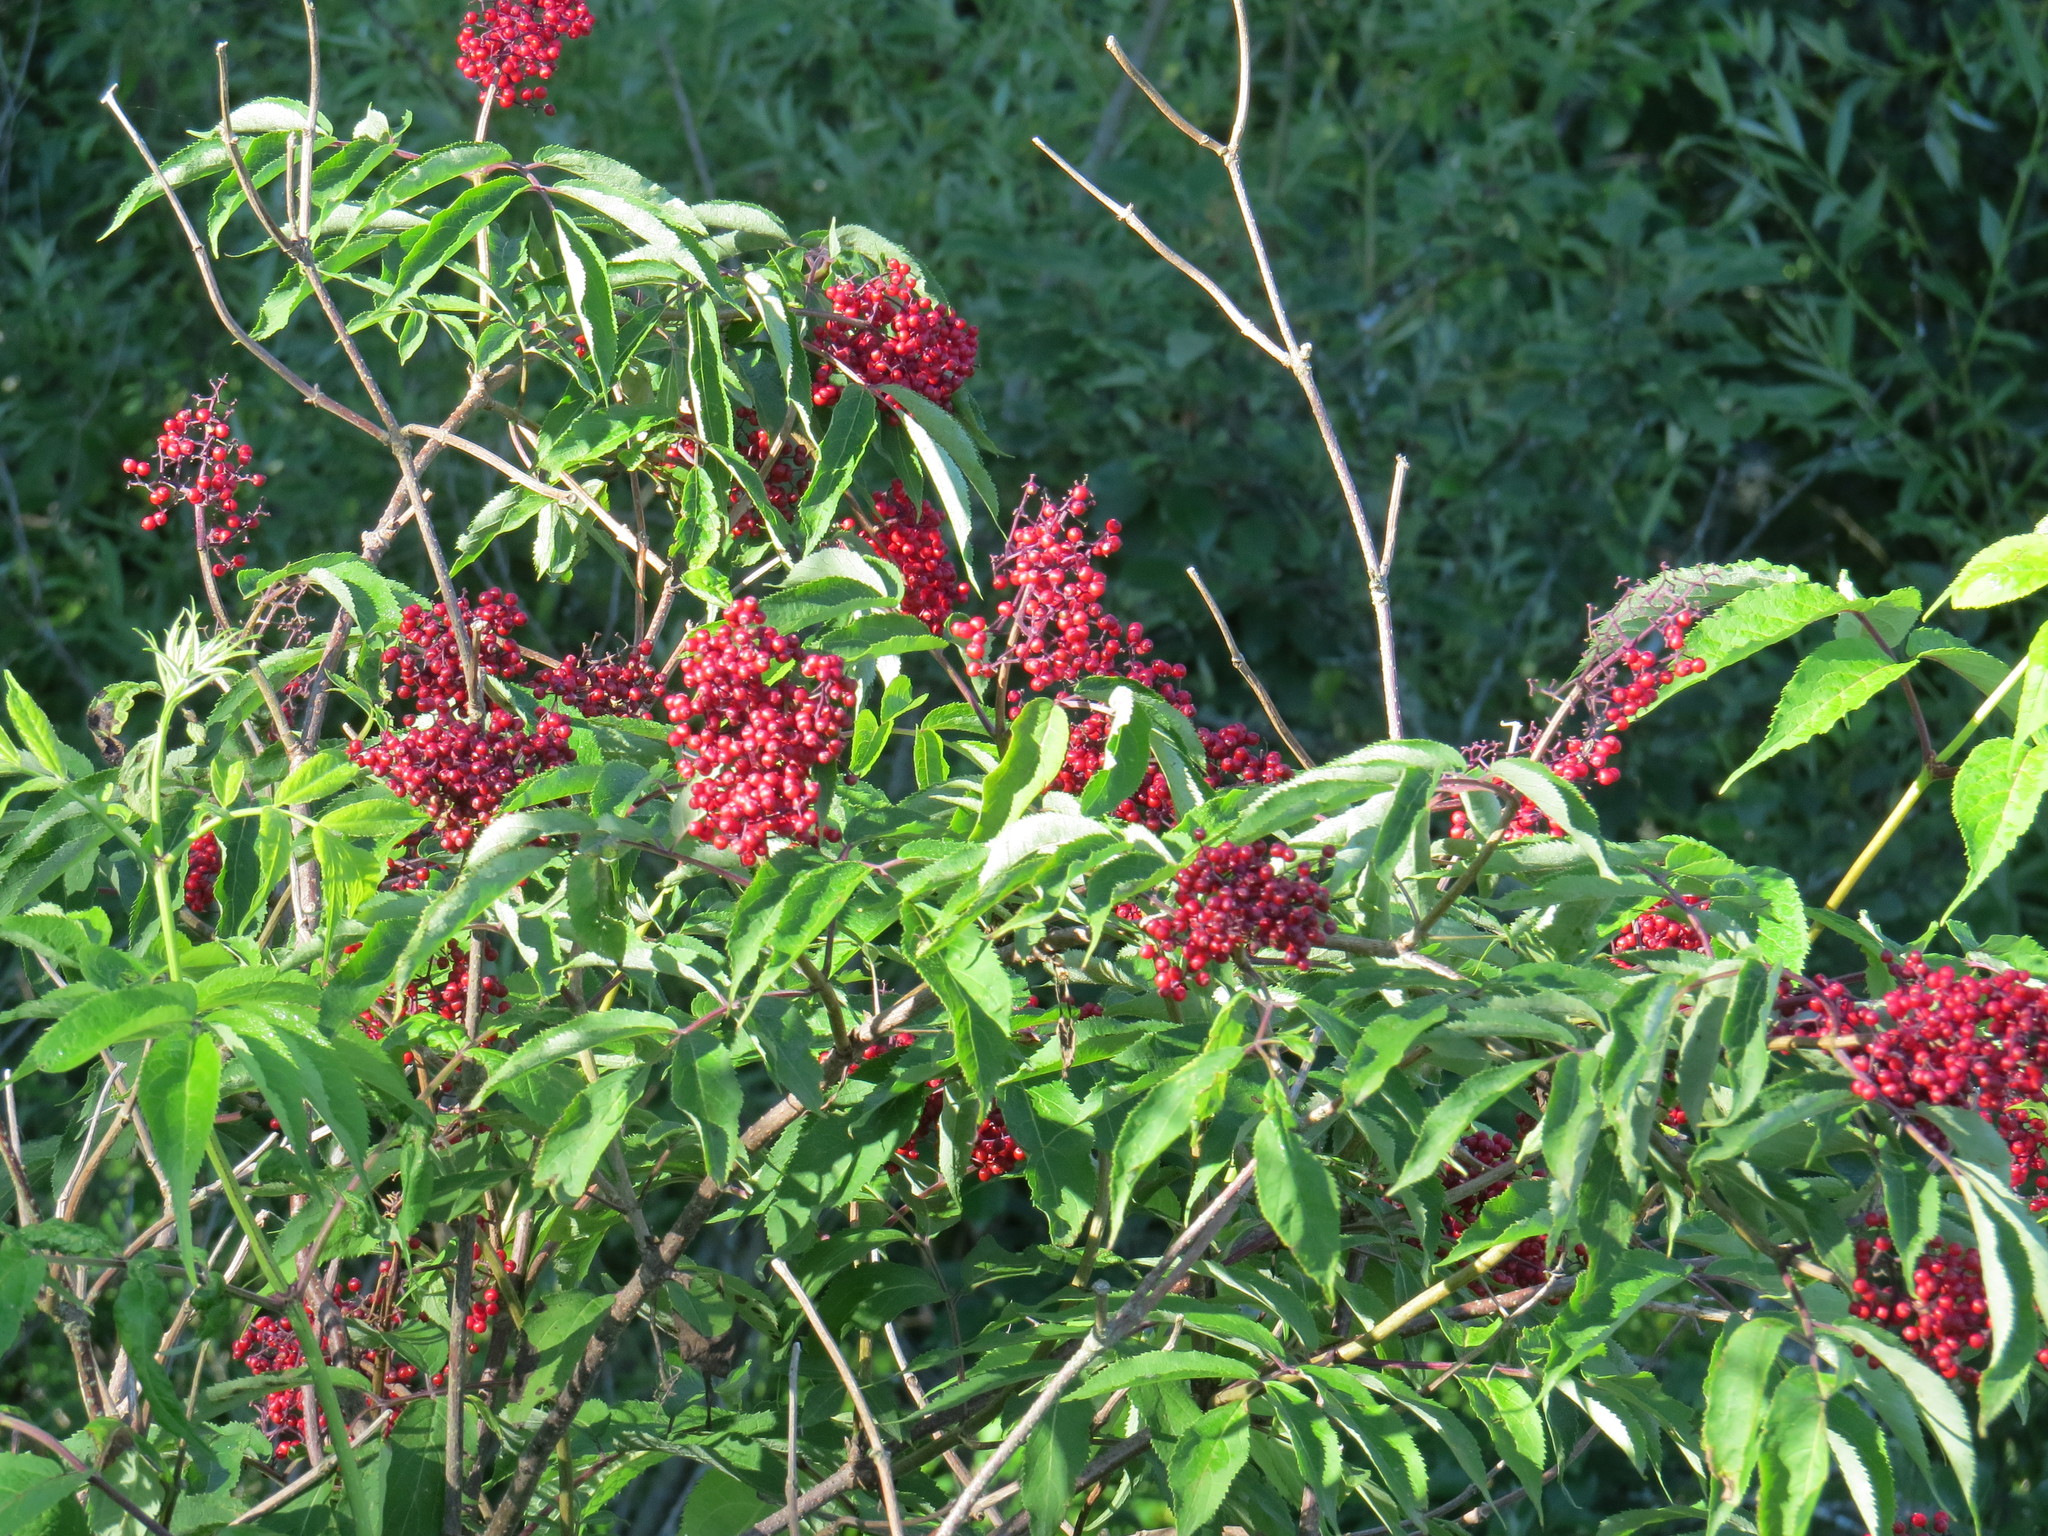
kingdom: Plantae
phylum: Tracheophyta
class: Magnoliopsida
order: Dipsacales
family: Viburnaceae
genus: Sambucus
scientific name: Sambucus racemosa
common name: Red-berried elder
